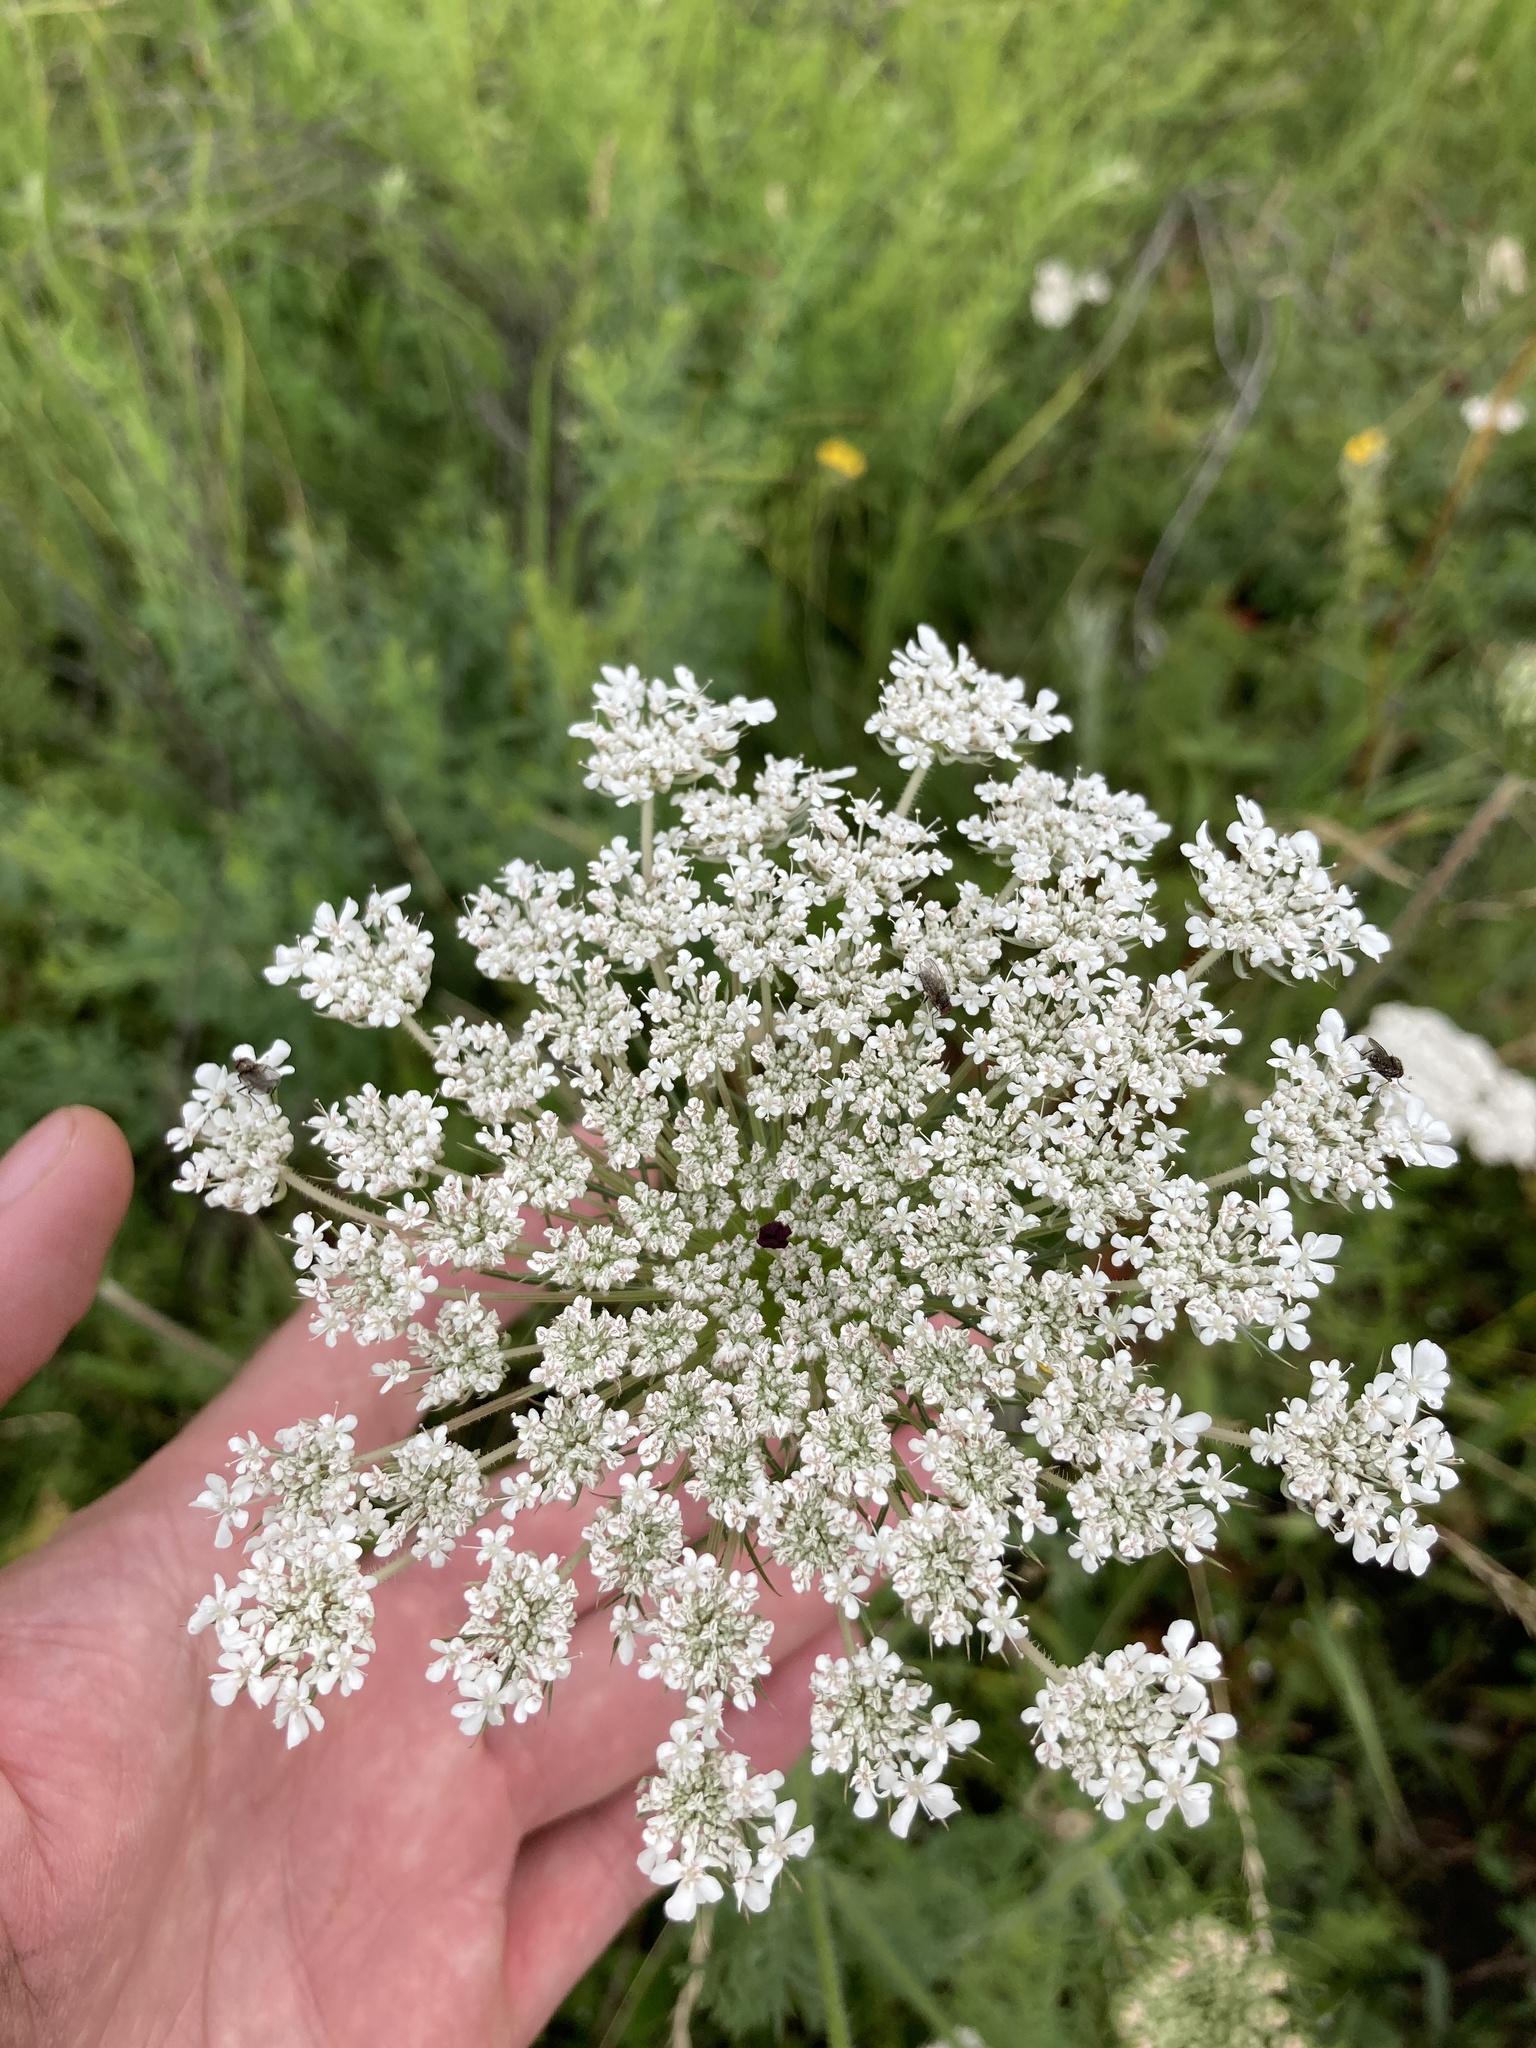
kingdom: Plantae
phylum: Tracheophyta
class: Magnoliopsida
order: Apiales
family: Apiaceae
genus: Daucus
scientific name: Daucus carota
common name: Wild carrot
